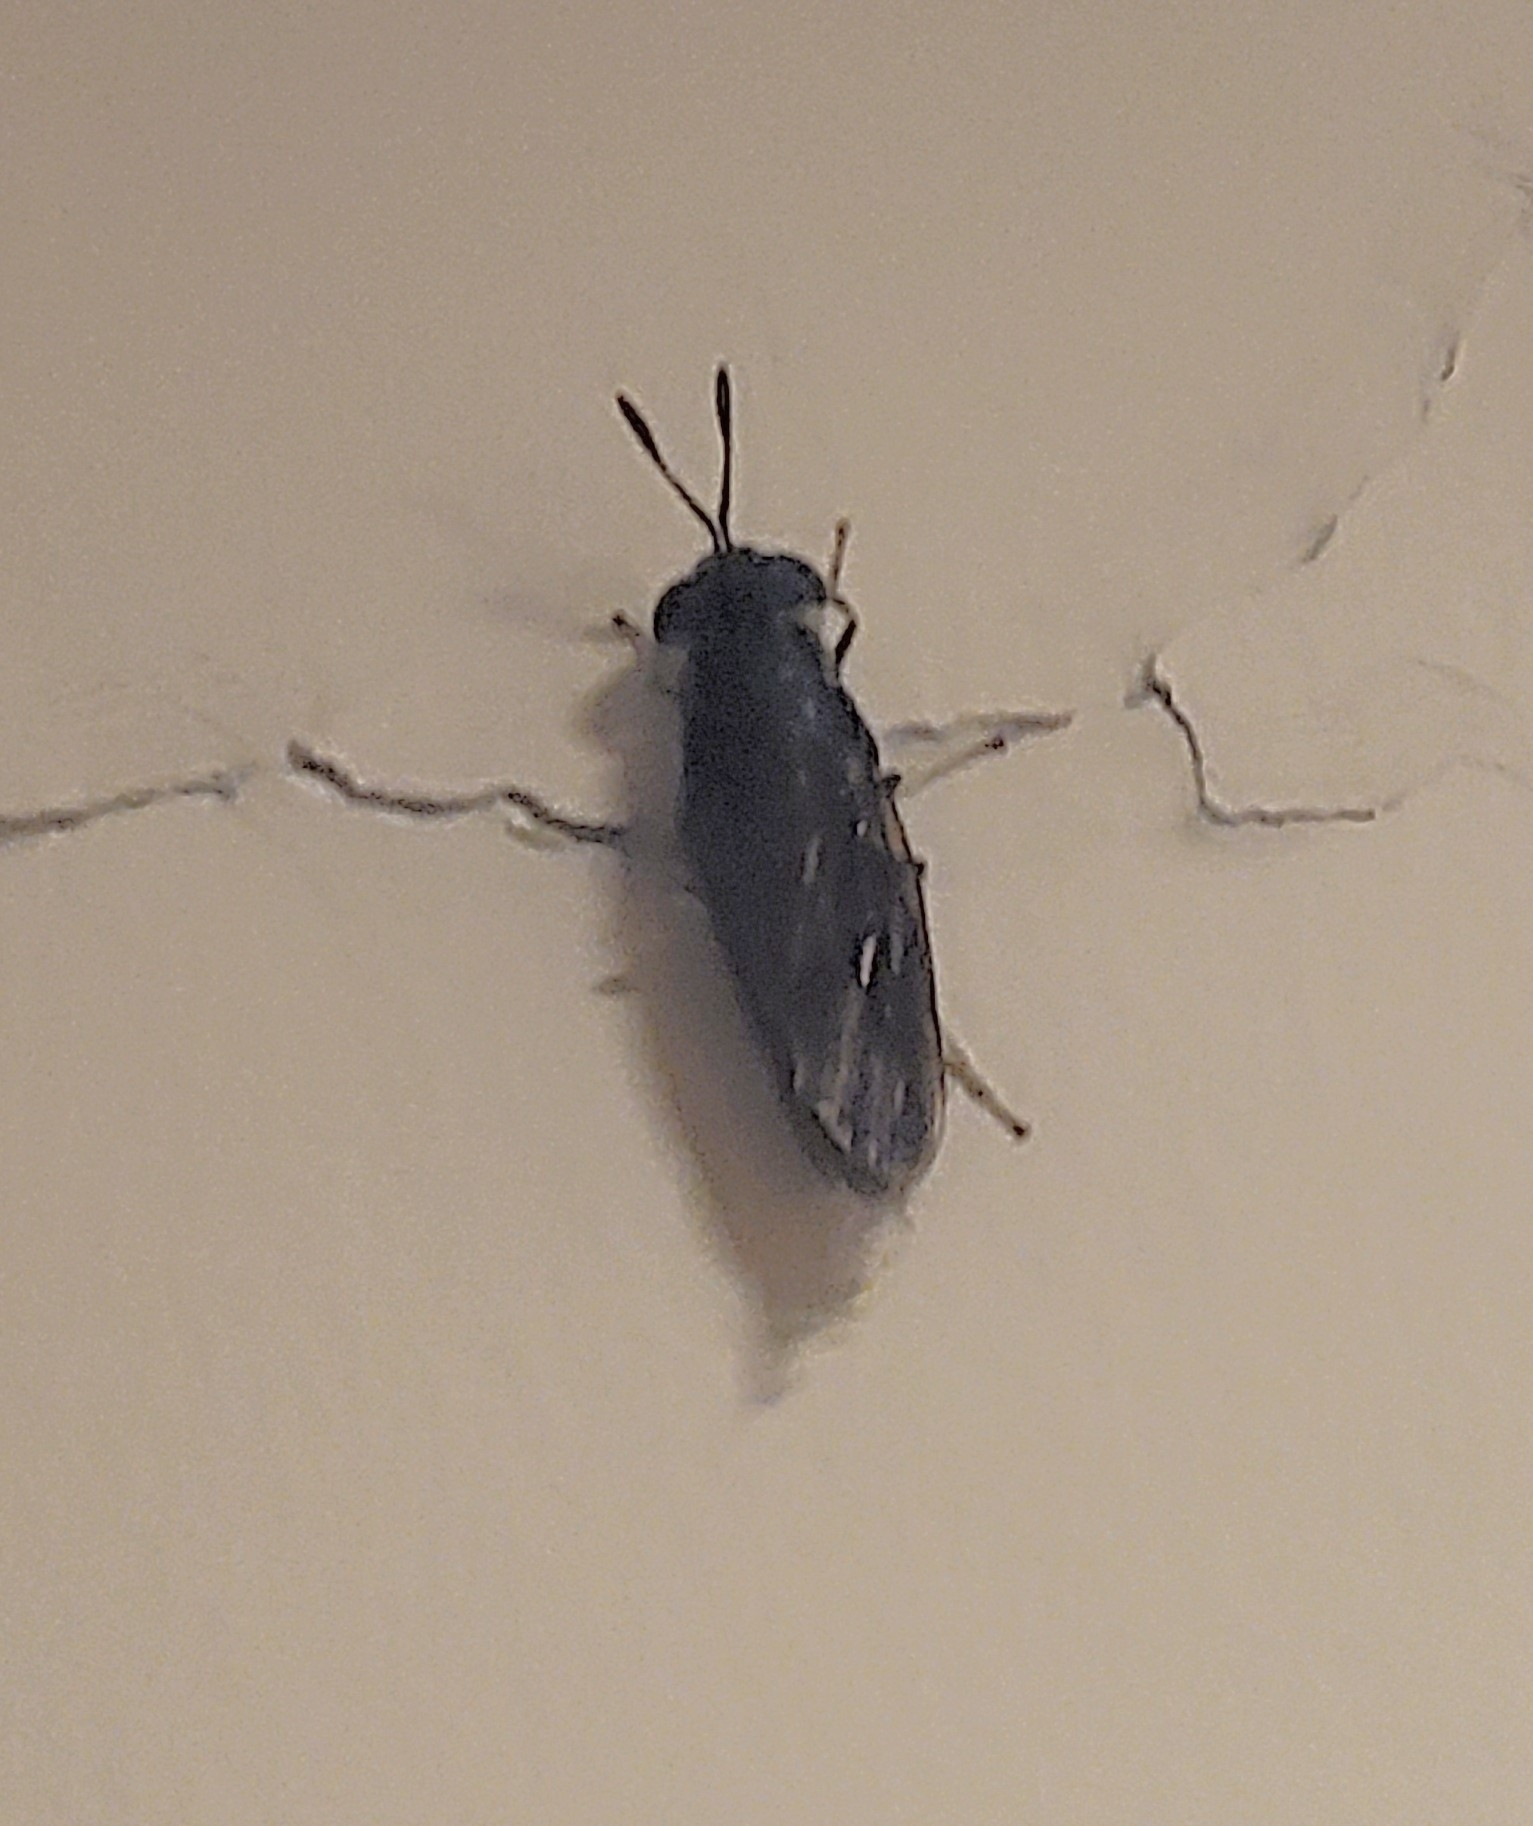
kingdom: Animalia
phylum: Arthropoda
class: Insecta
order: Diptera
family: Stratiomyidae
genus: Hermetia
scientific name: Hermetia illucens
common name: Black soldier fly
